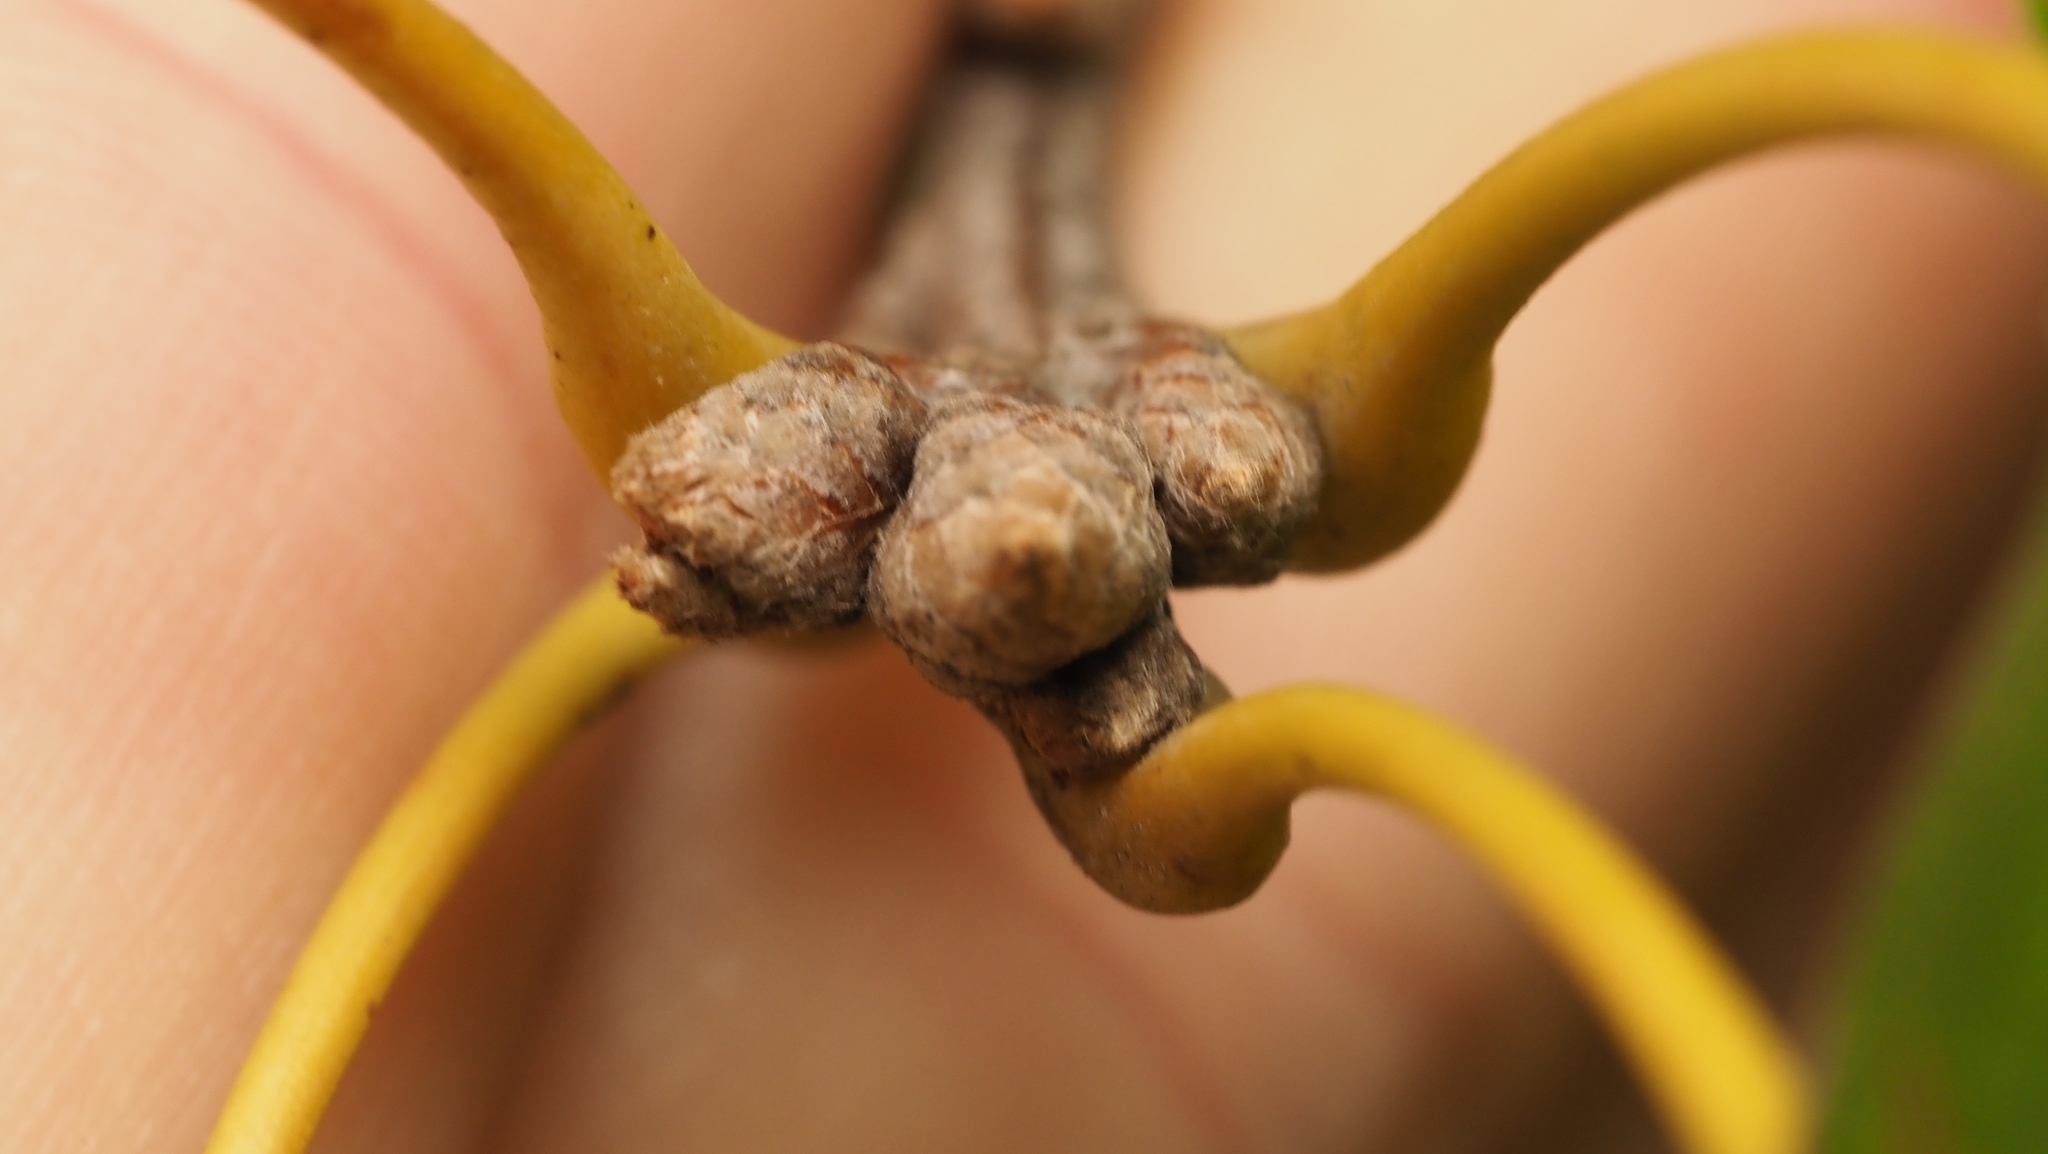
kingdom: Plantae
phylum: Tracheophyta
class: Magnoliopsida
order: Fagales
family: Fagaceae
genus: Quercus
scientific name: Quercus velutina
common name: Black oak
